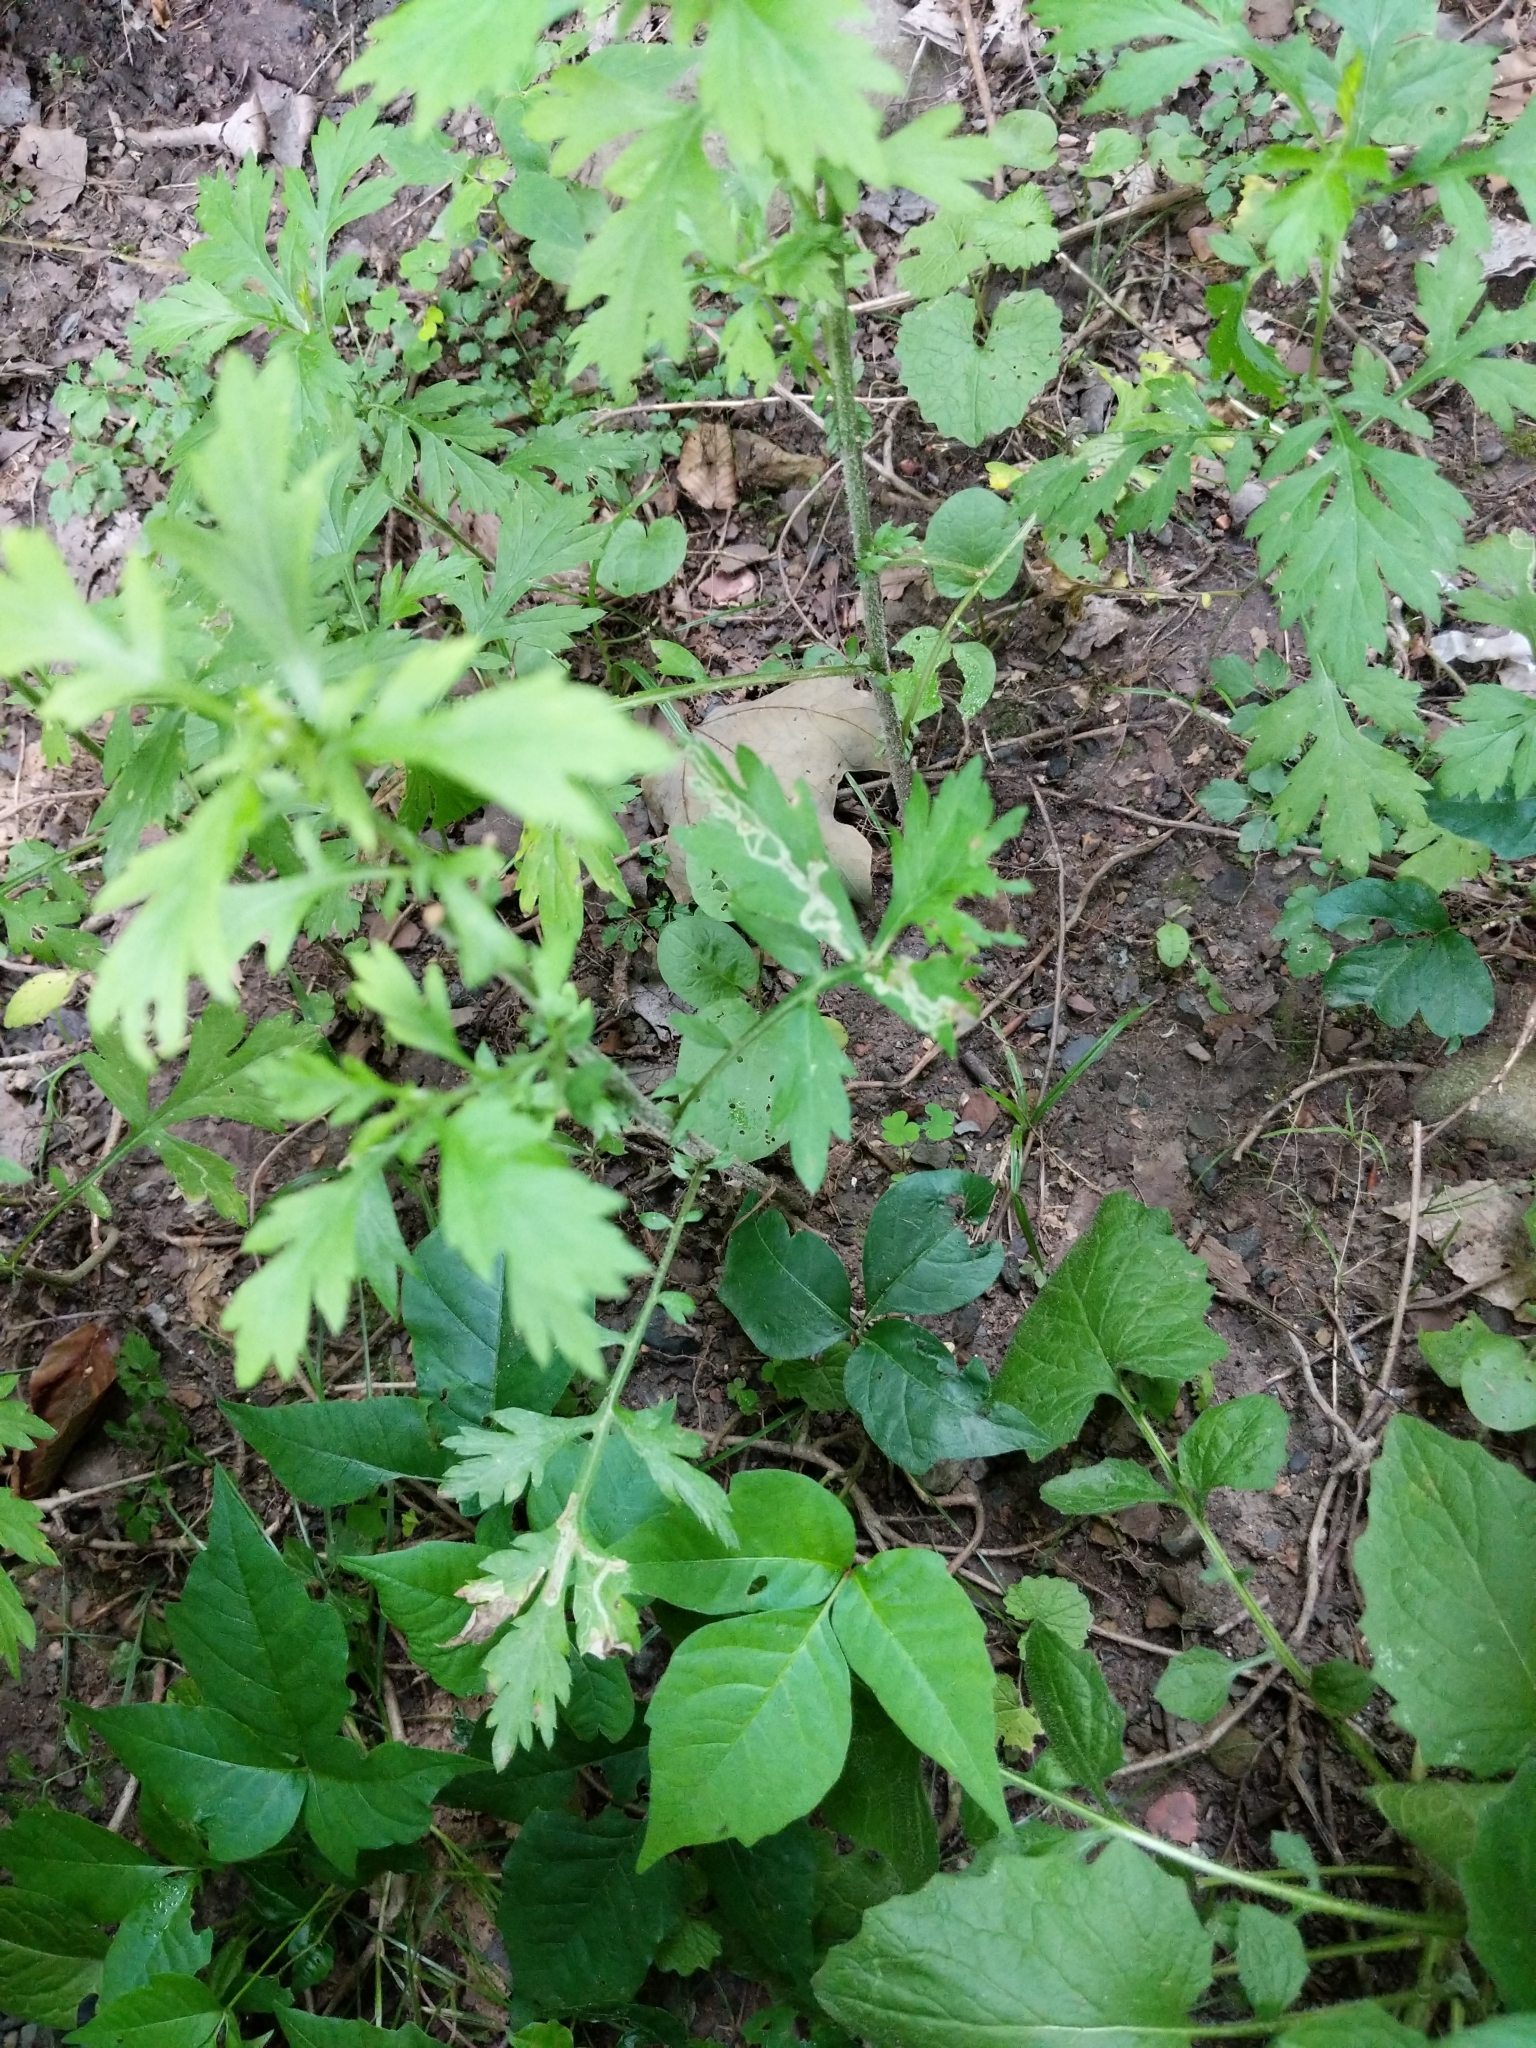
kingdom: Plantae
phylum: Tracheophyta
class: Magnoliopsida
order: Asterales
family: Asteraceae
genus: Artemisia
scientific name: Artemisia vulgaris
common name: Mugwort
